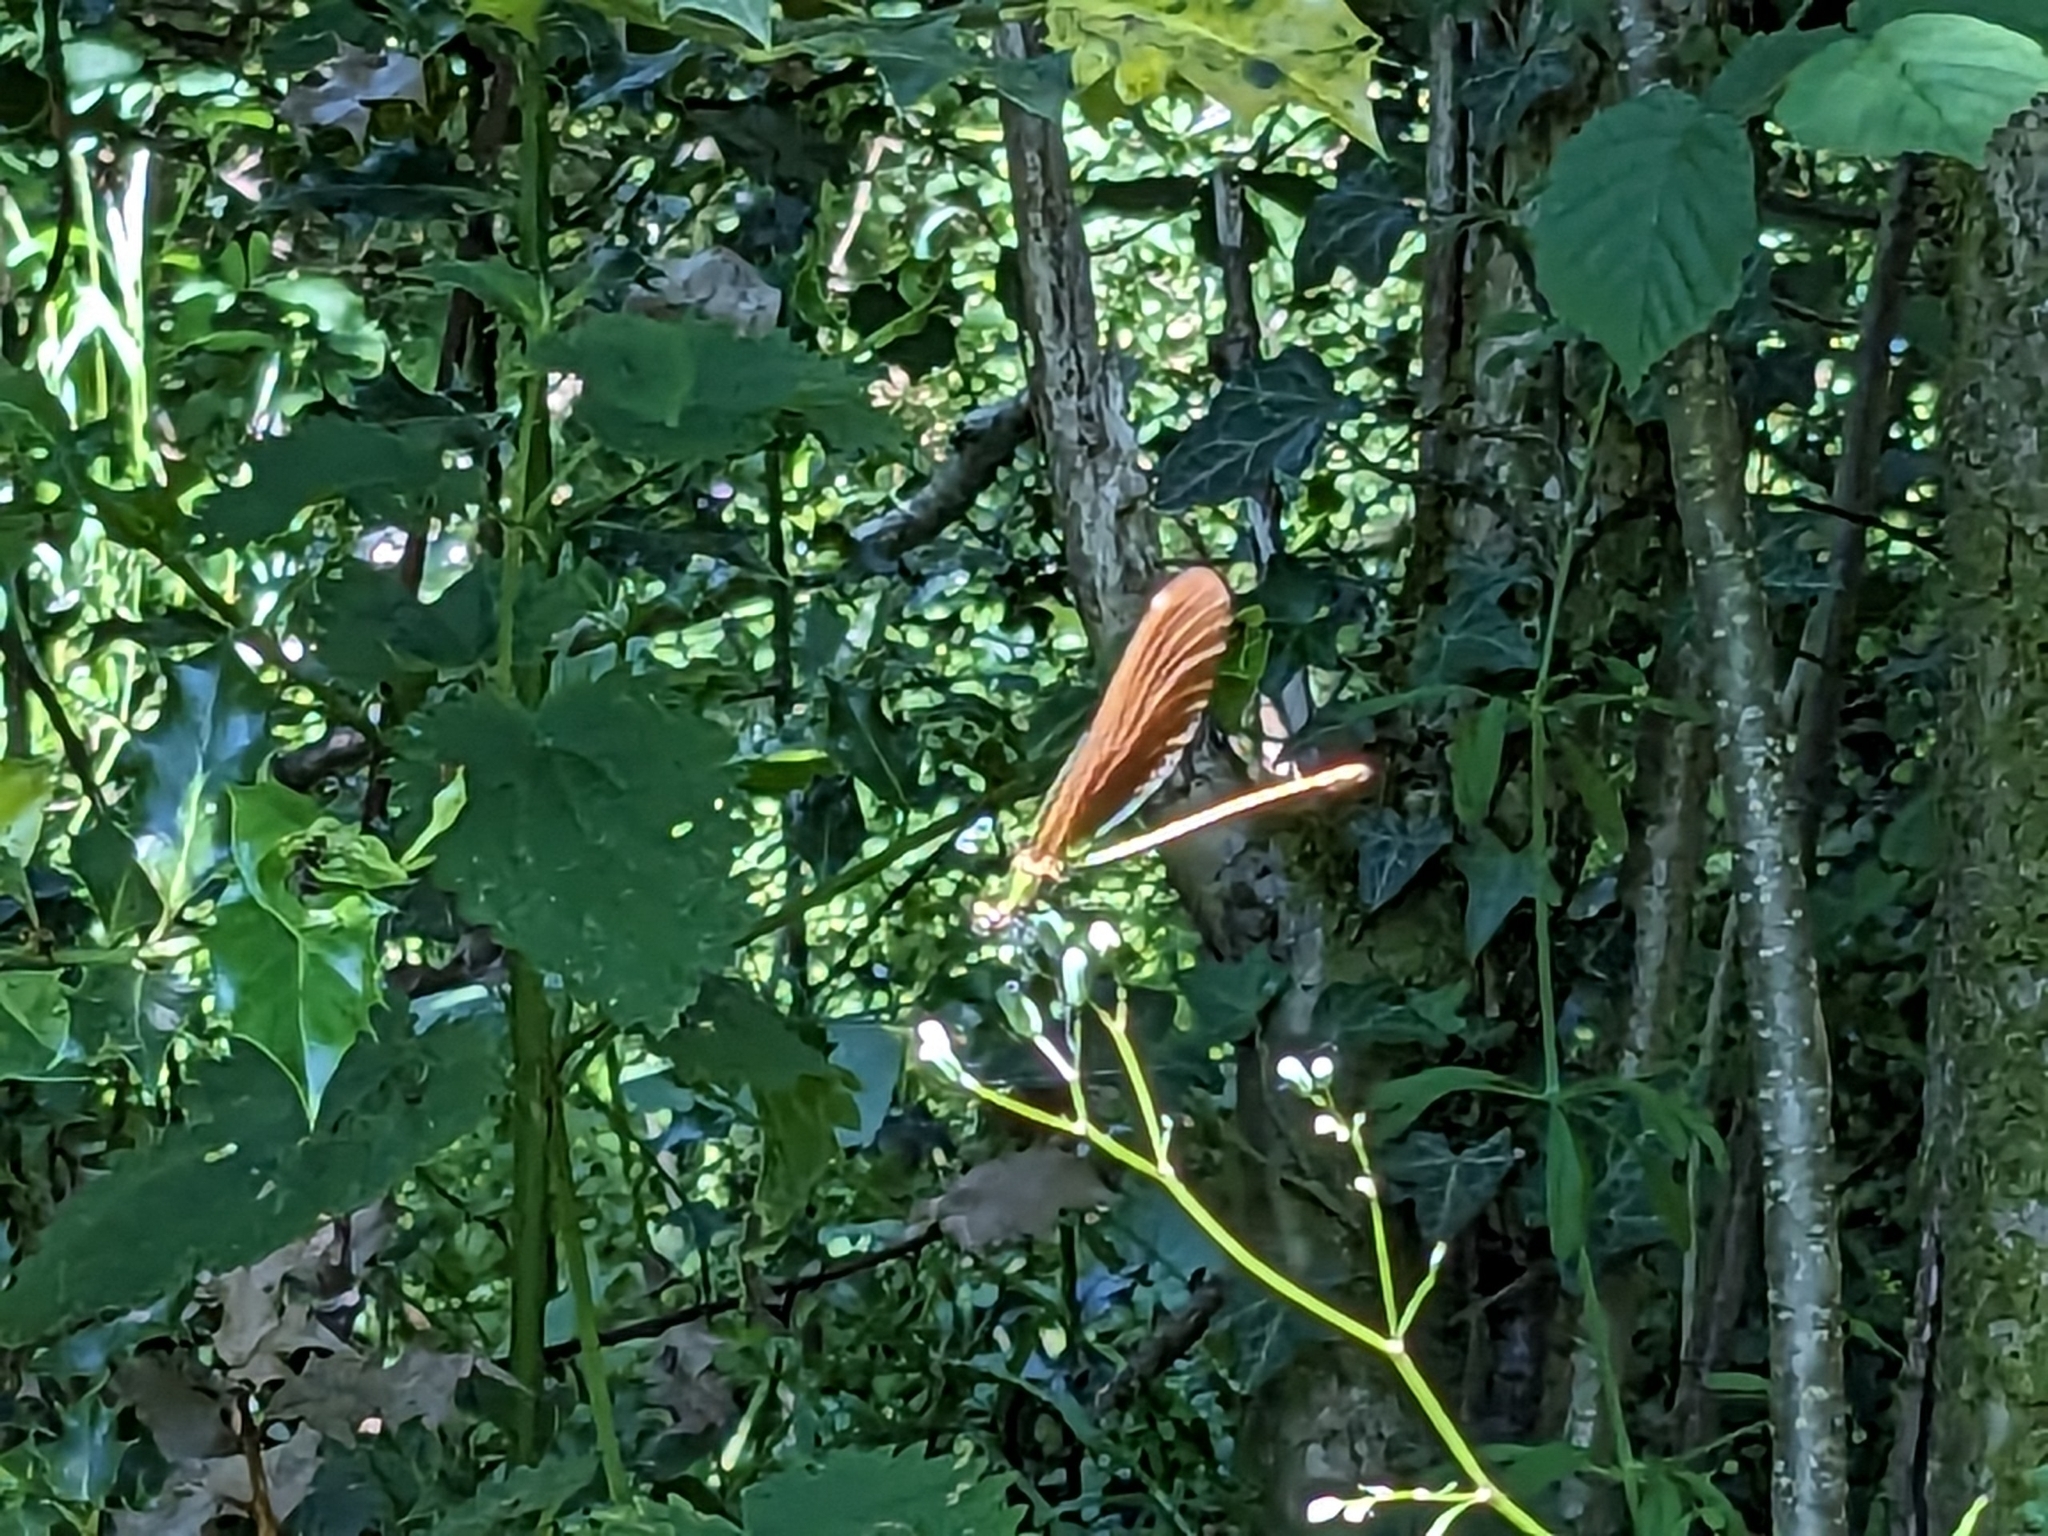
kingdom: Animalia
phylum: Arthropoda
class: Insecta
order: Odonata
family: Calopterygidae
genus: Calopteryx
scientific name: Calopteryx virgo
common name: Beautiful demoiselle
